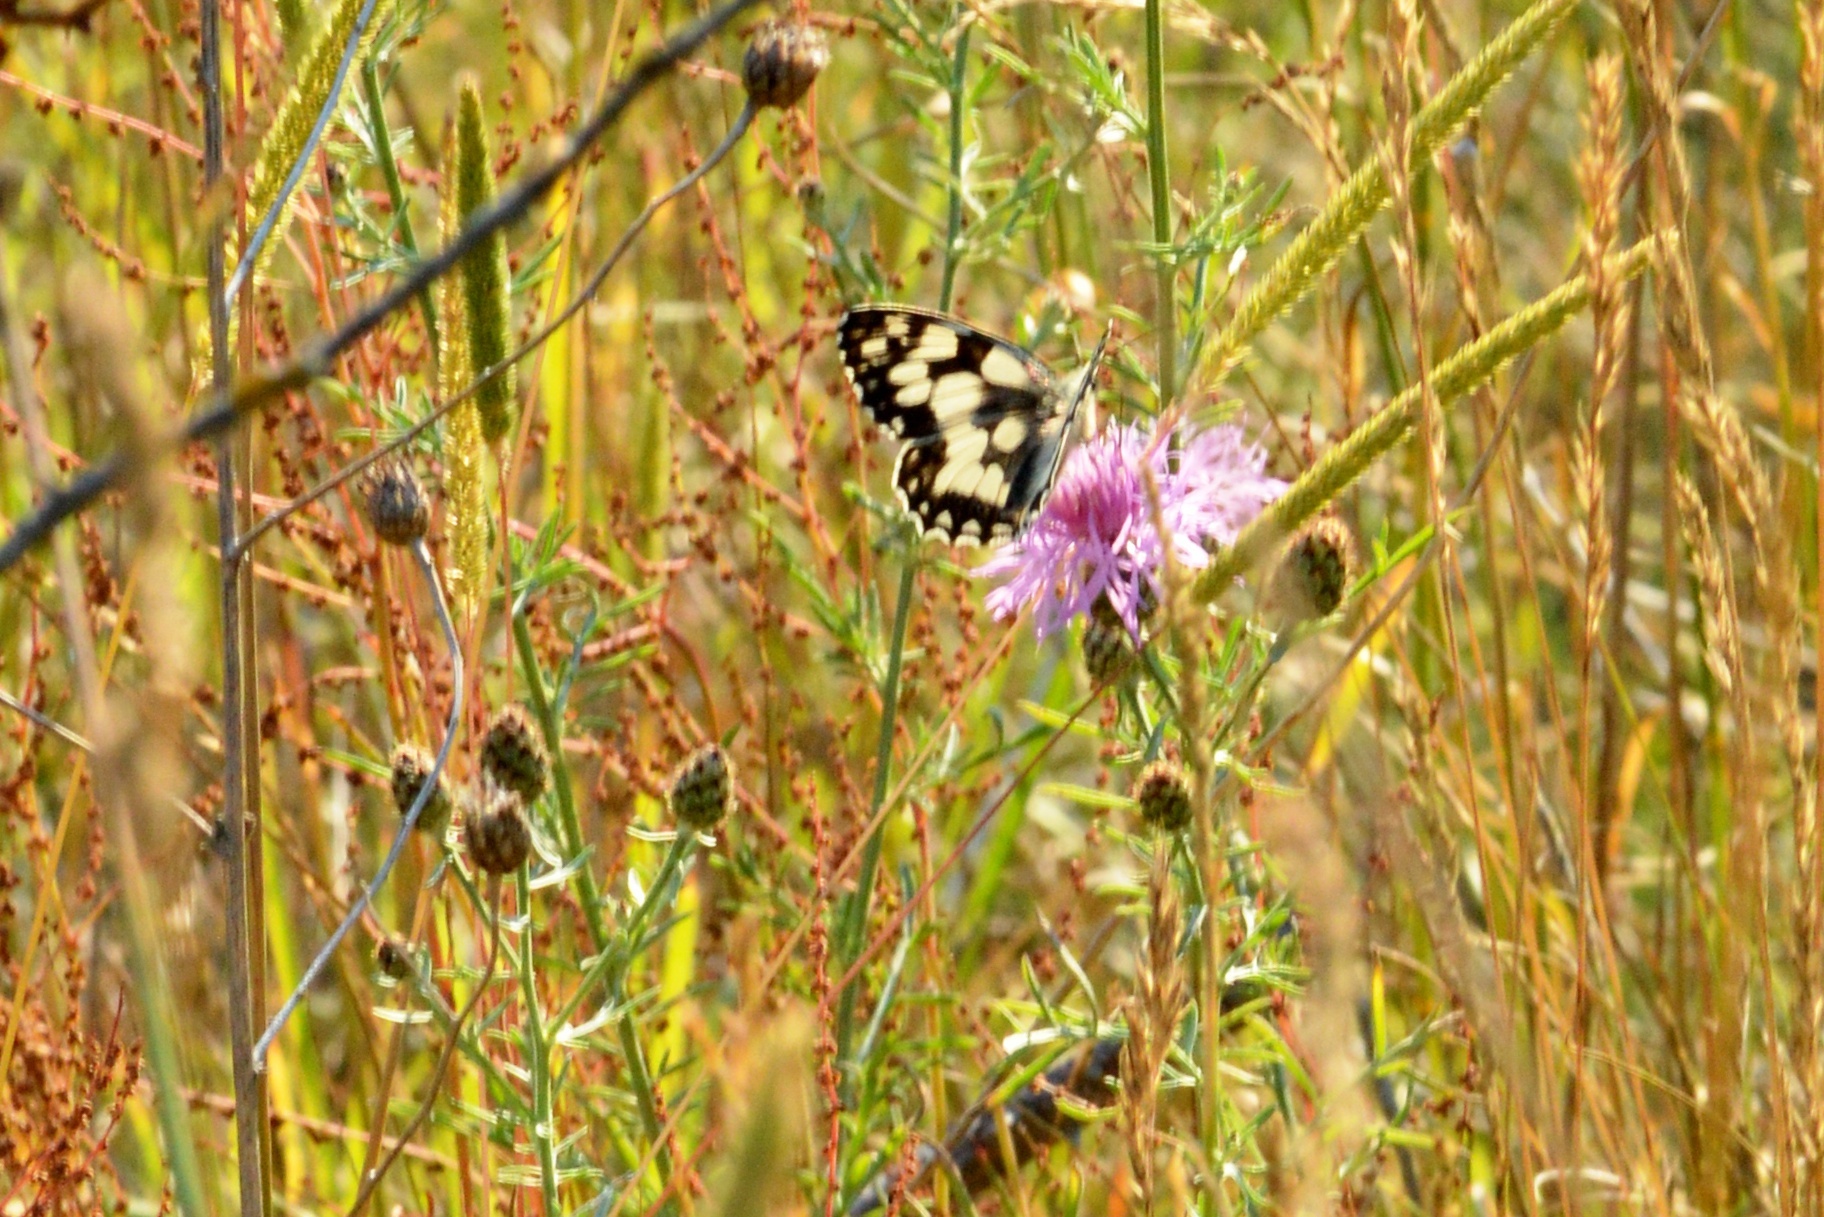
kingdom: Animalia
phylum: Arthropoda
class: Insecta
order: Lepidoptera
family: Nymphalidae
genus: Melanargia
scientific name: Melanargia galathea
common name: Marbled white
